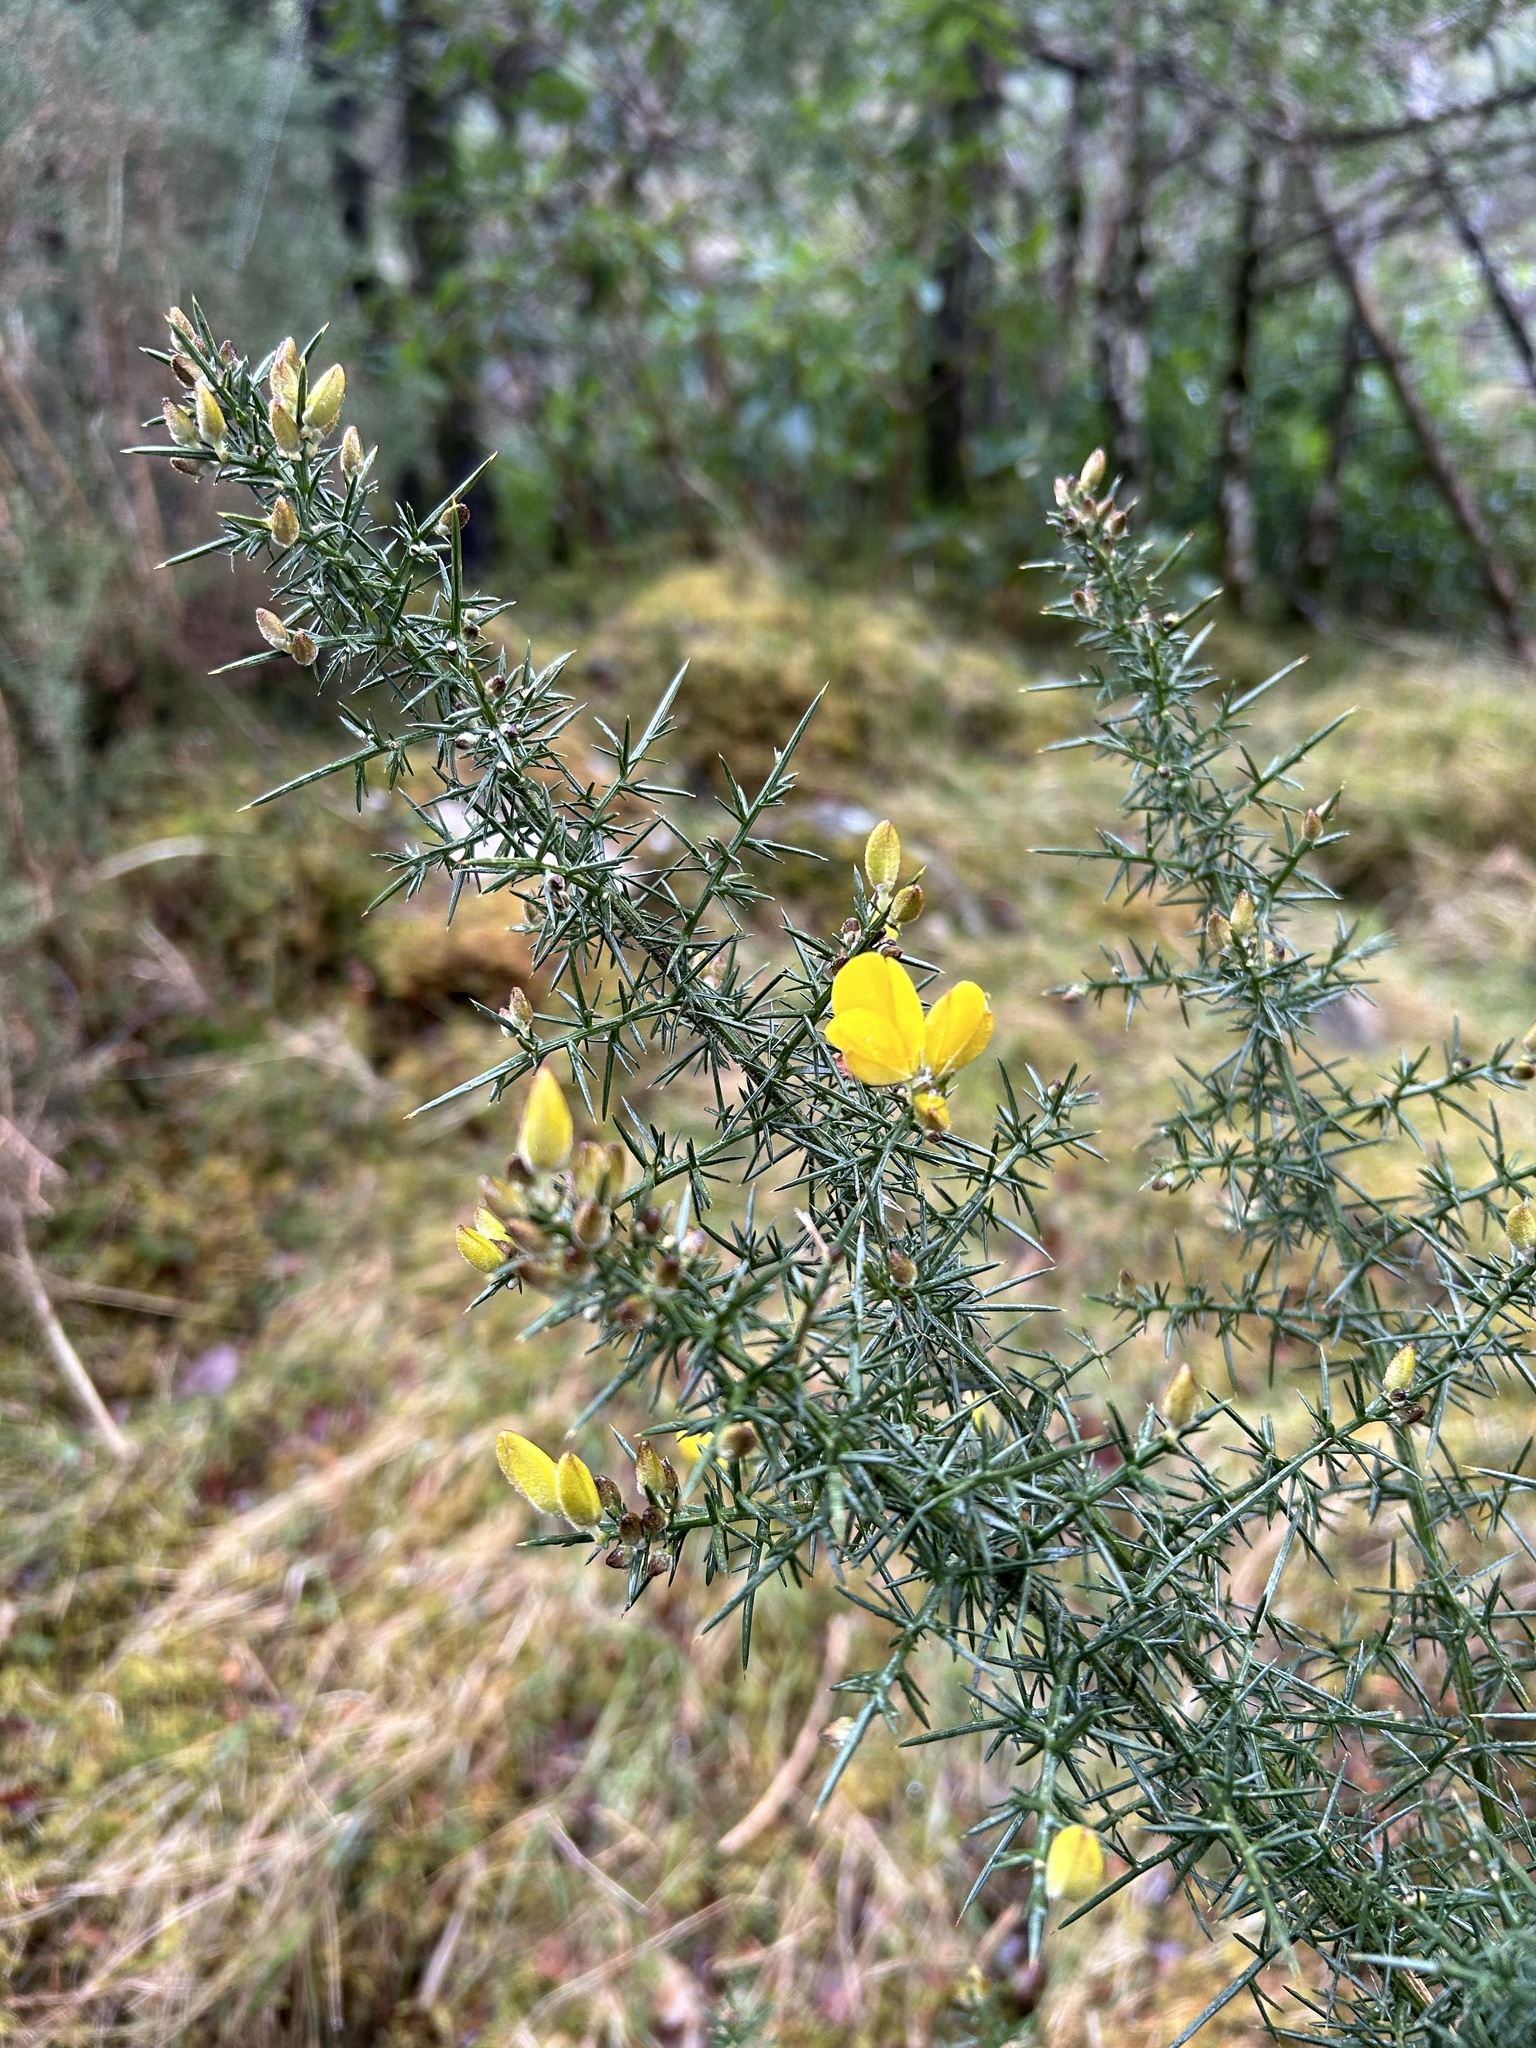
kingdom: Plantae
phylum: Tracheophyta
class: Magnoliopsida
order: Fabales
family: Fabaceae
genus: Ulex
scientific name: Ulex europaeus
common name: Common gorse
